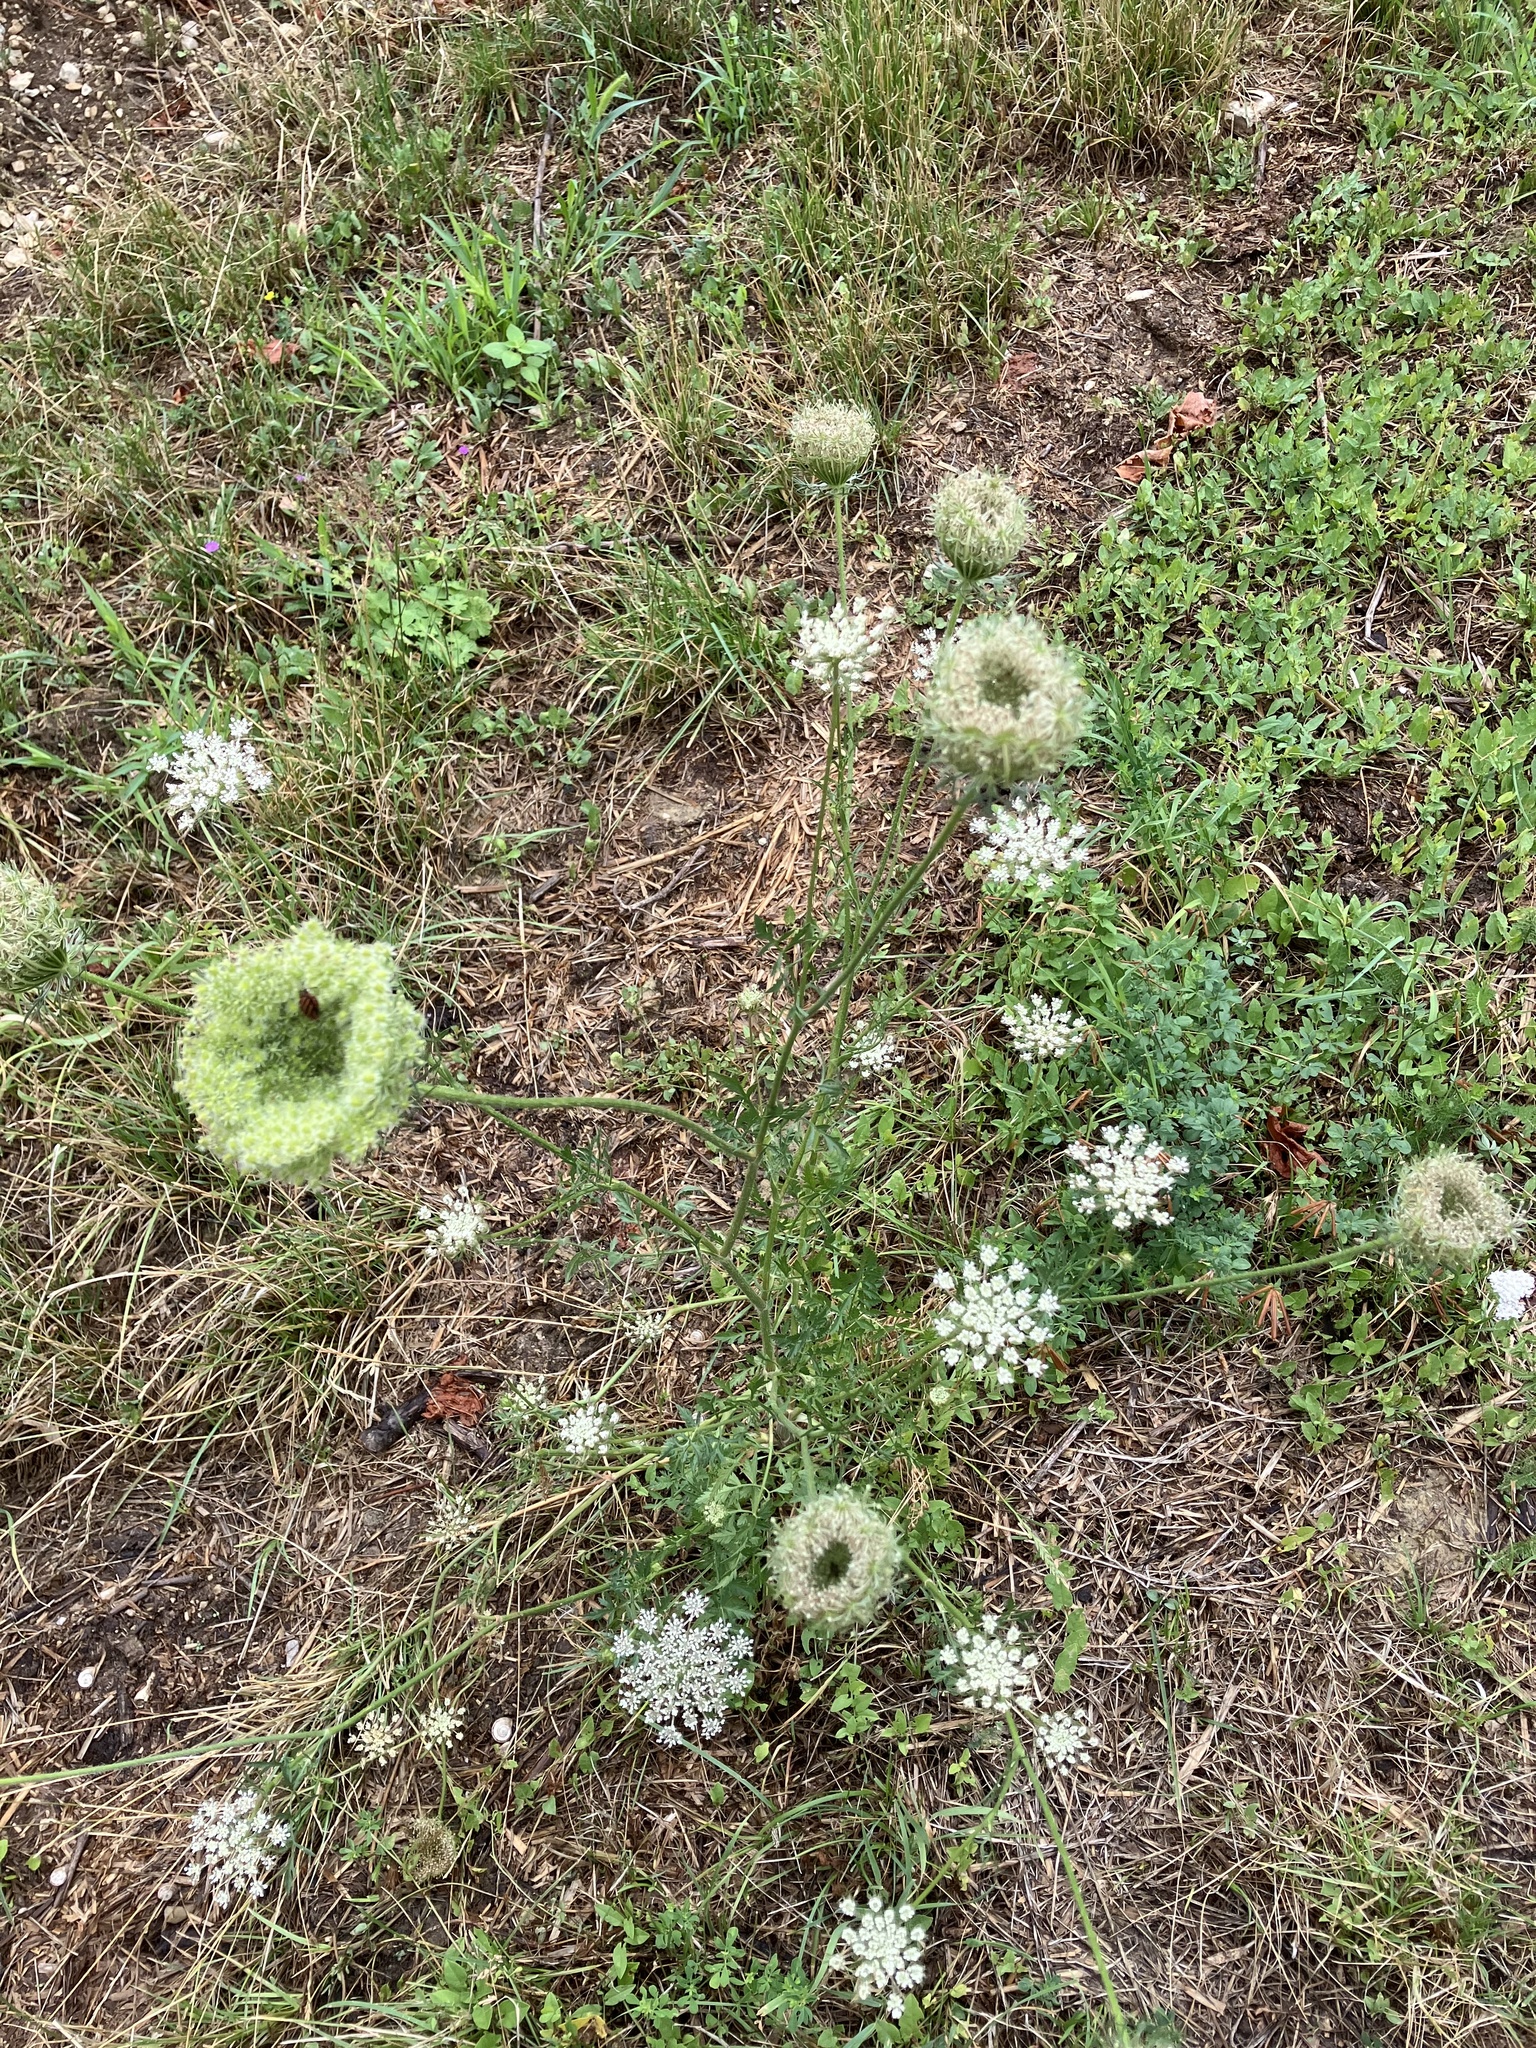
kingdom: Plantae
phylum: Tracheophyta
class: Magnoliopsida
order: Apiales
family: Apiaceae
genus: Daucus
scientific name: Daucus carota
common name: Wild carrot
